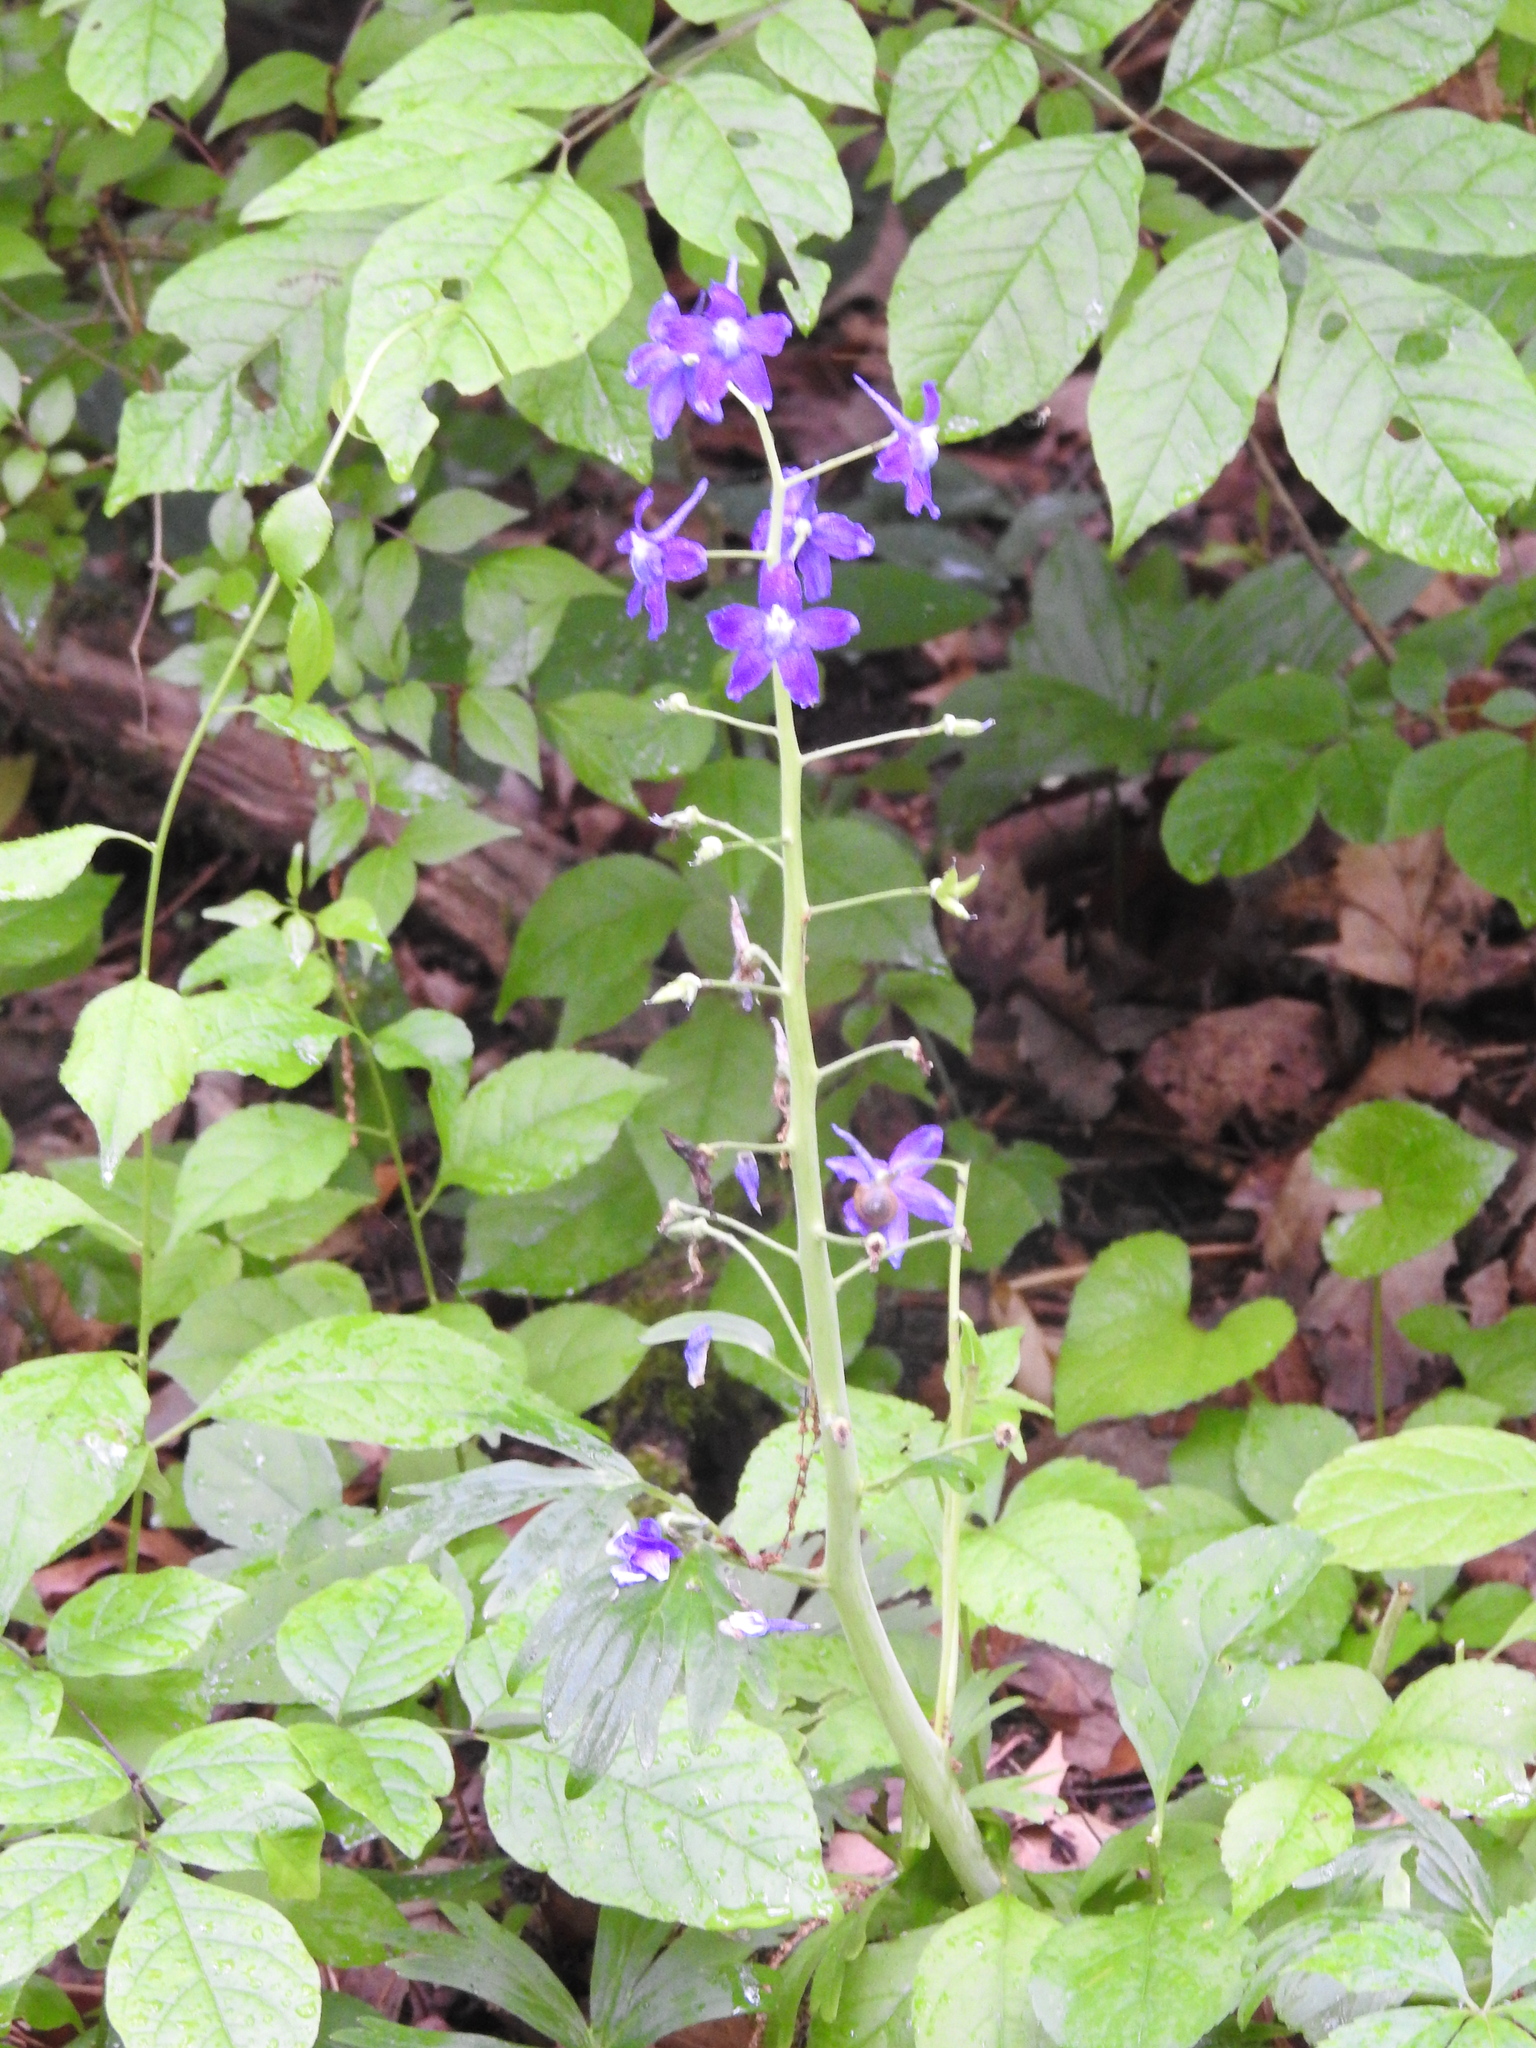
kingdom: Plantae
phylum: Tracheophyta
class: Magnoliopsida
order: Ranunculales
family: Ranunculaceae
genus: Delphinium
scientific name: Delphinium tricorne
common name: Dwarf larkspur
